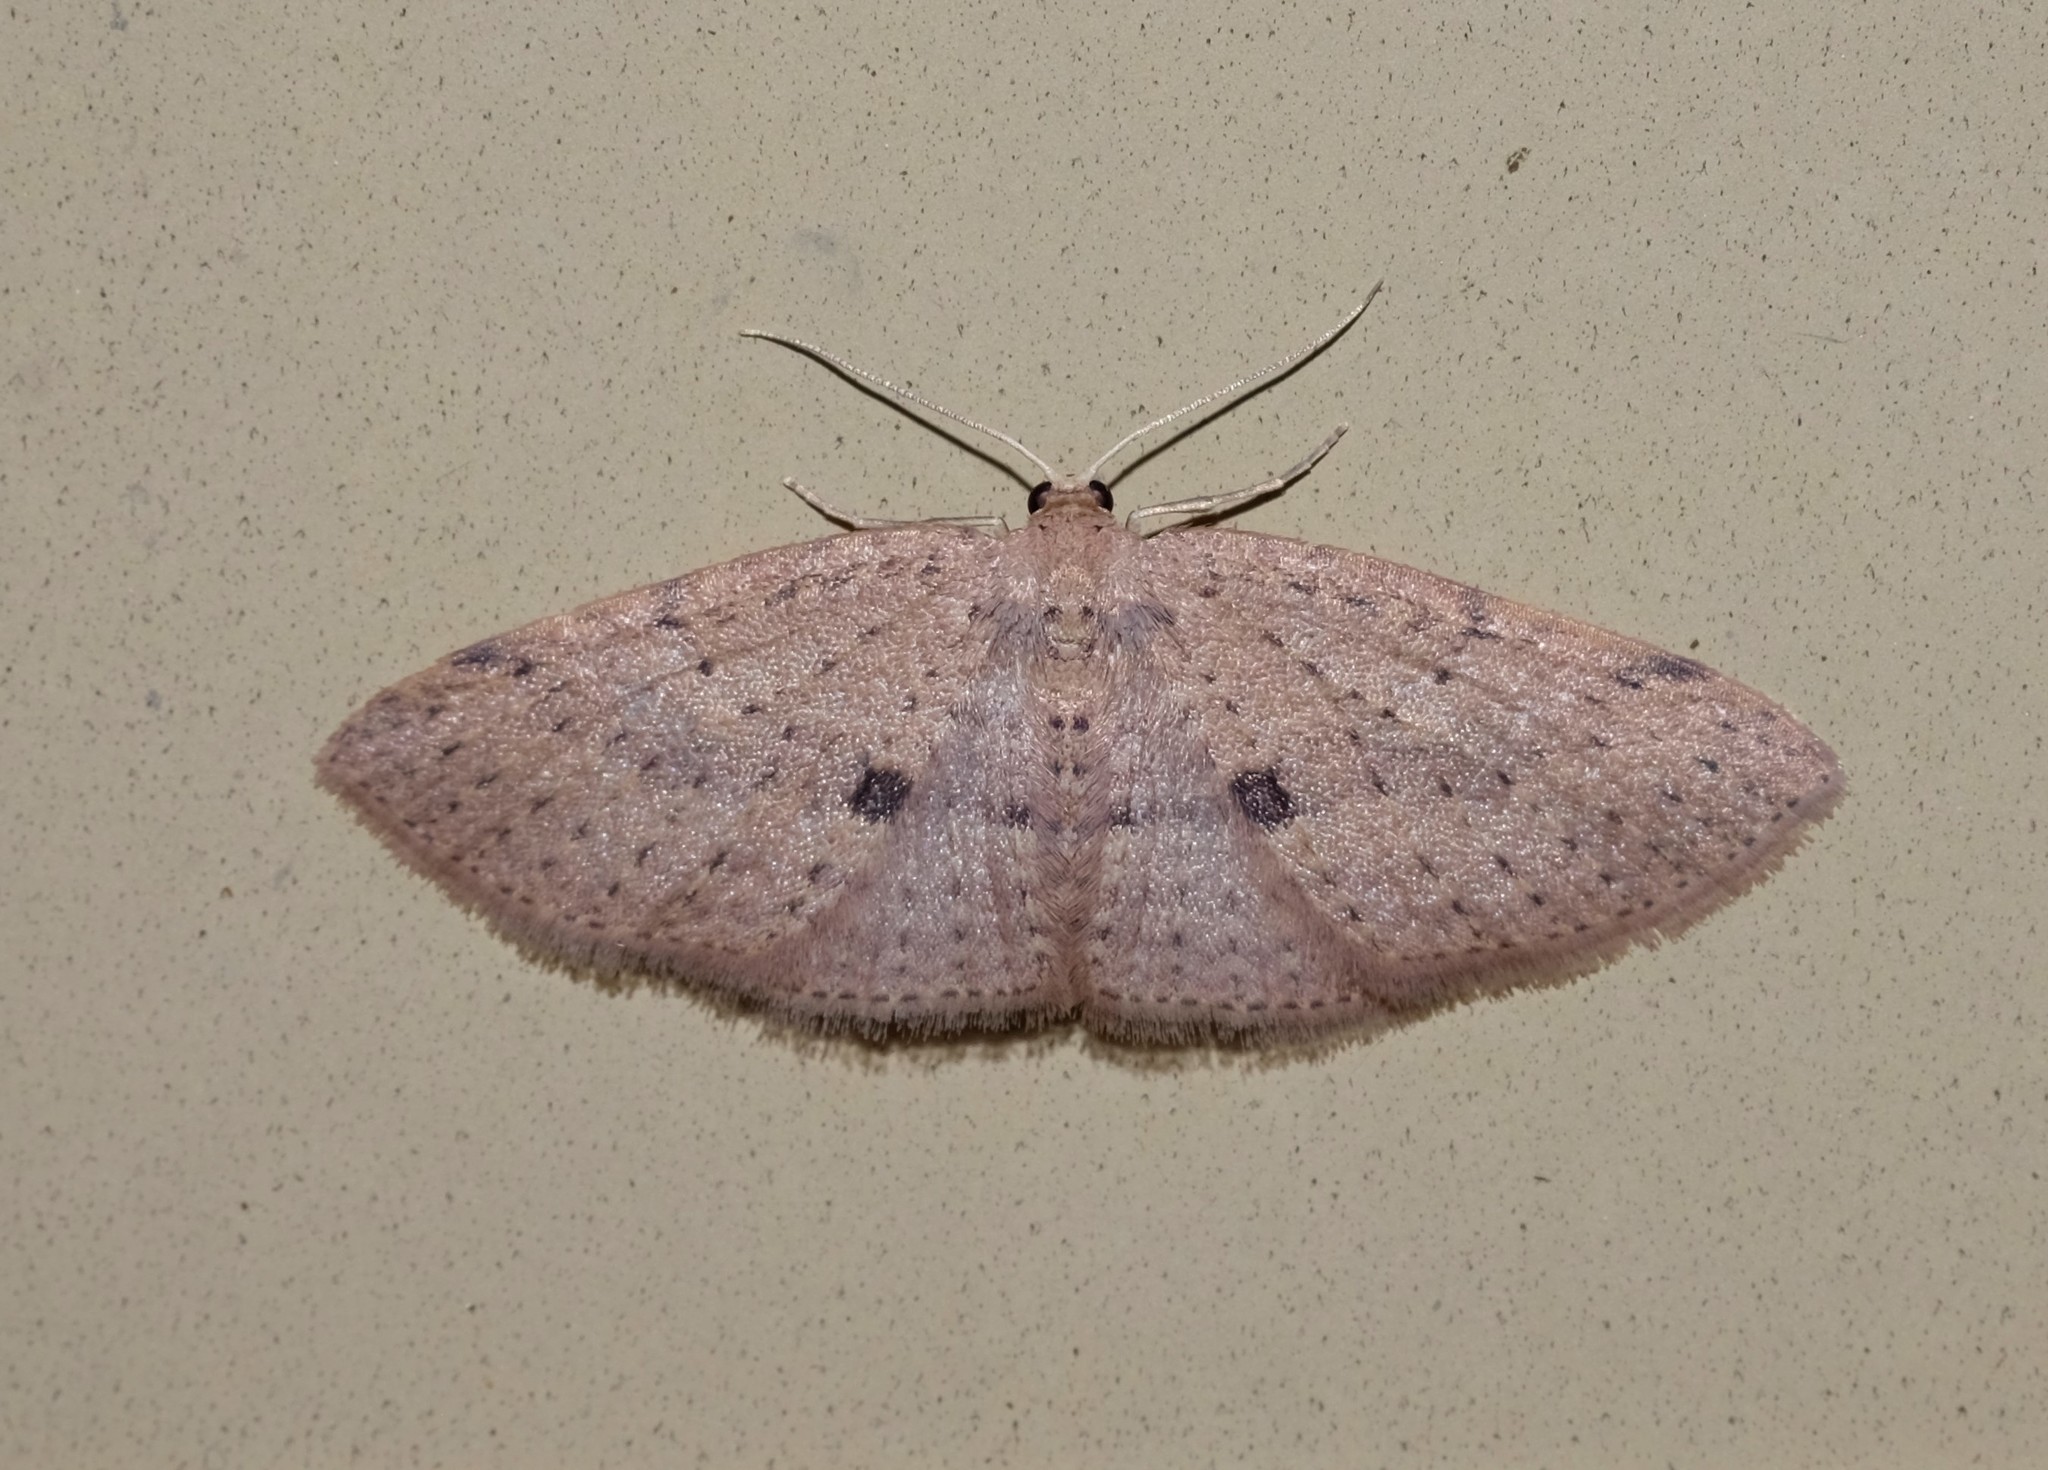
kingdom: Animalia
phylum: Arthropoda
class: Insecta
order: Lepidoptera
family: Geometridae
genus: Poecilasthena
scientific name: Poecilasthena anthodes
